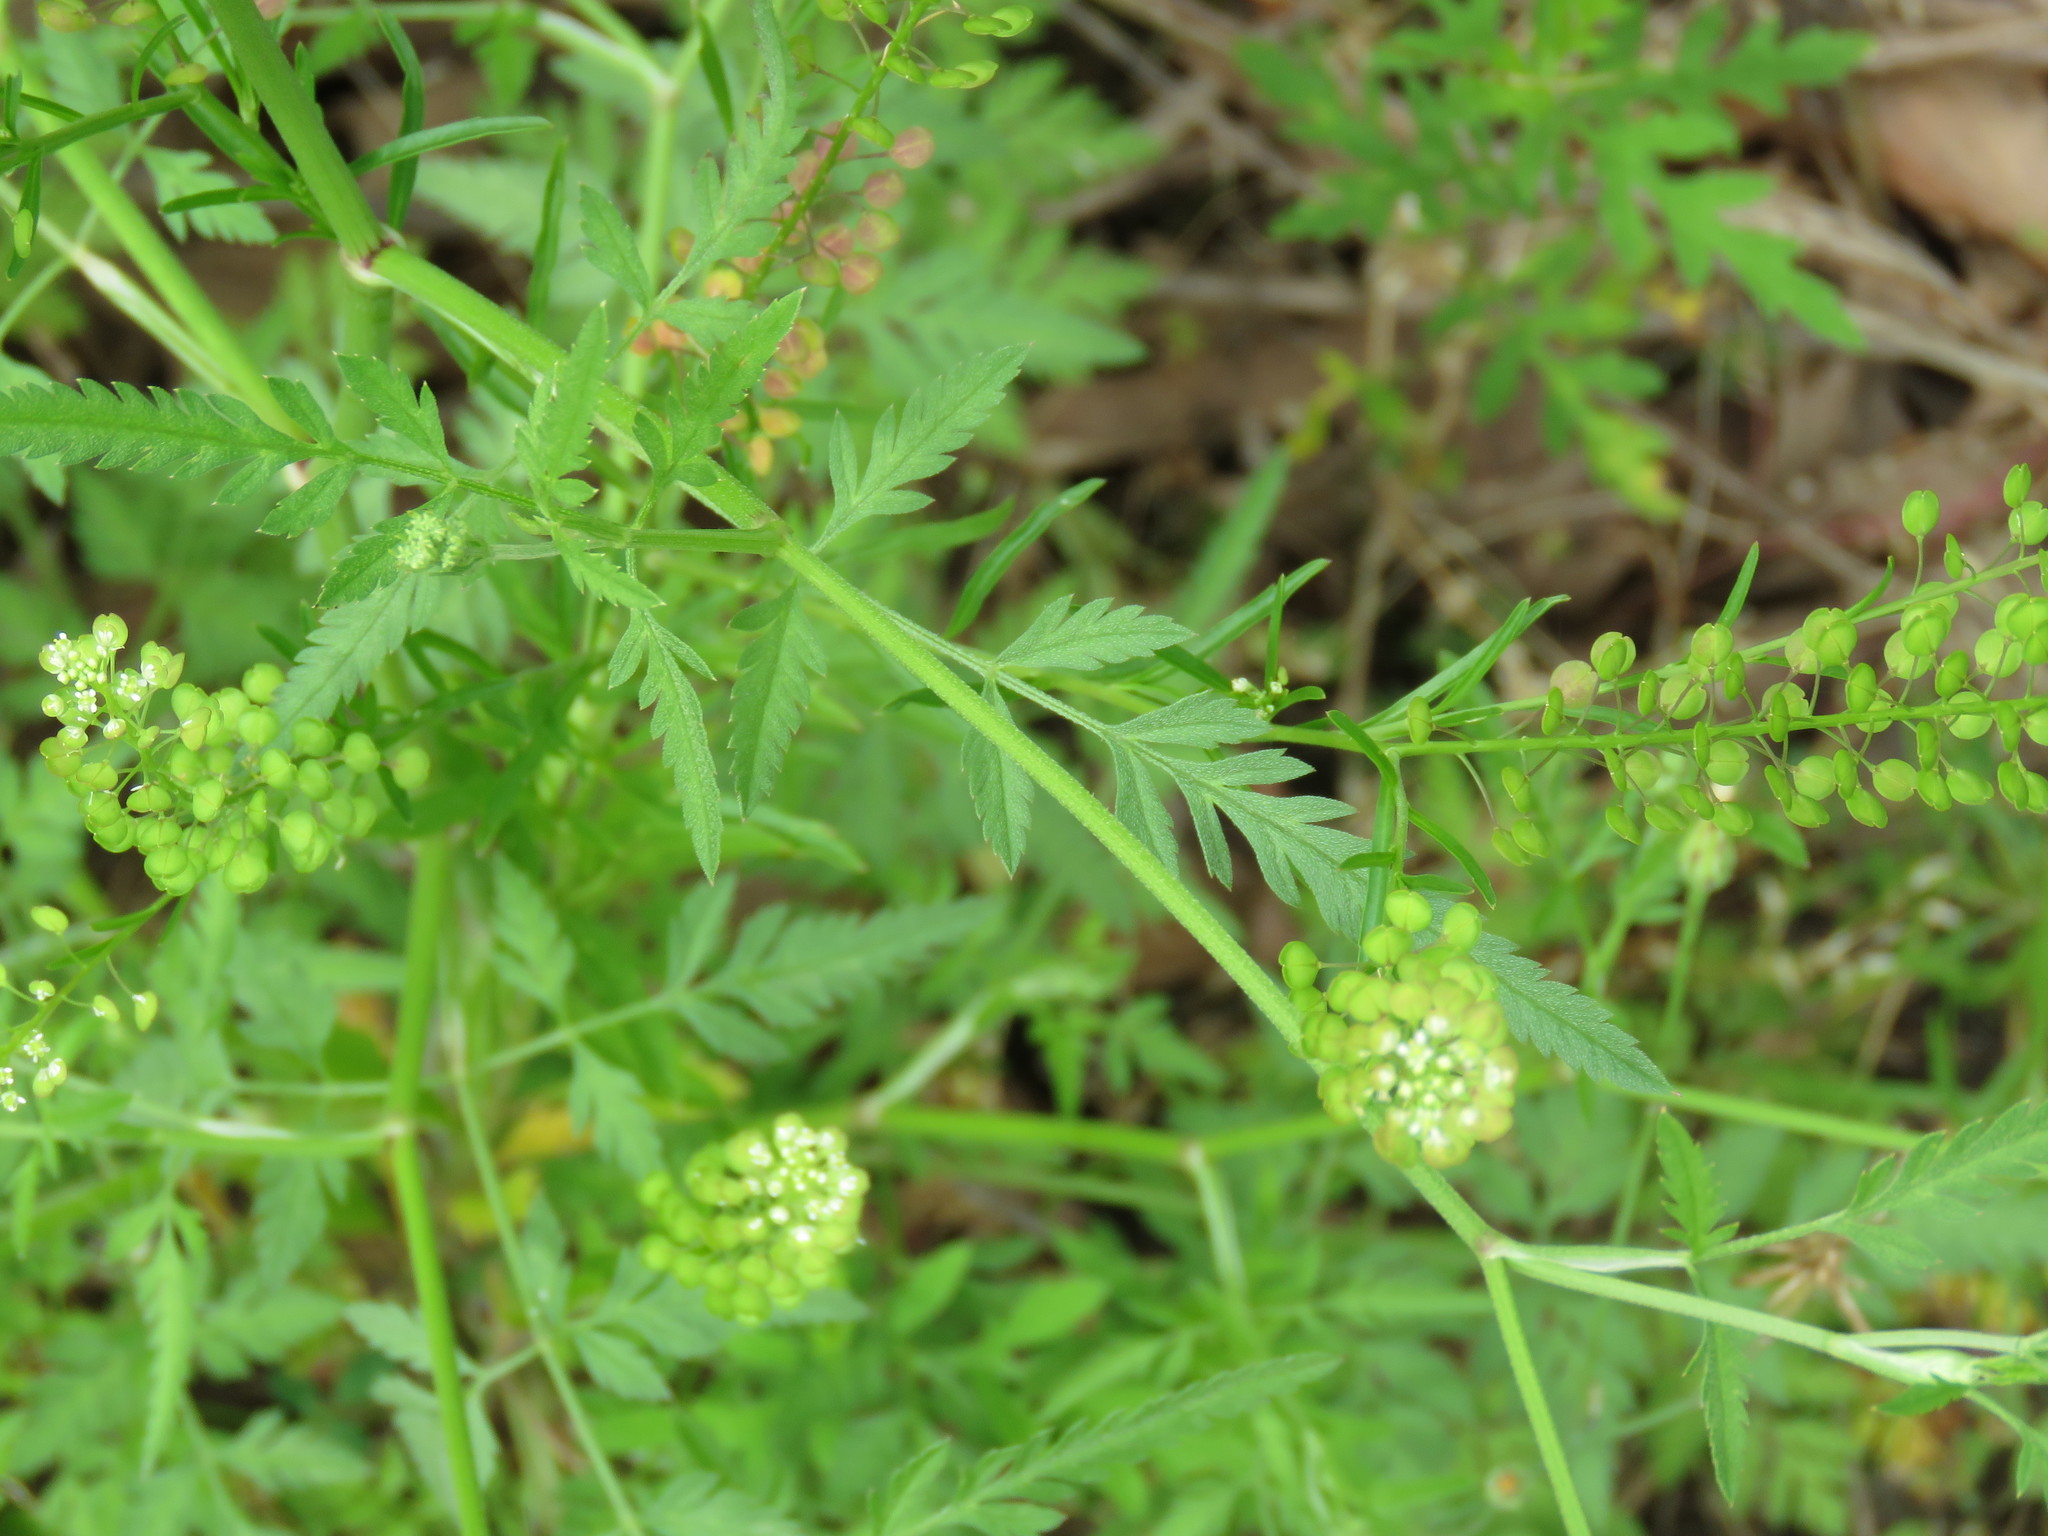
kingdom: Plantae
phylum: Tracheophyta
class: Magnoliopsida
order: Brassicales
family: Brassicaceae
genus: Lepidium
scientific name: Lepidium virginicum
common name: Least pepperwort
